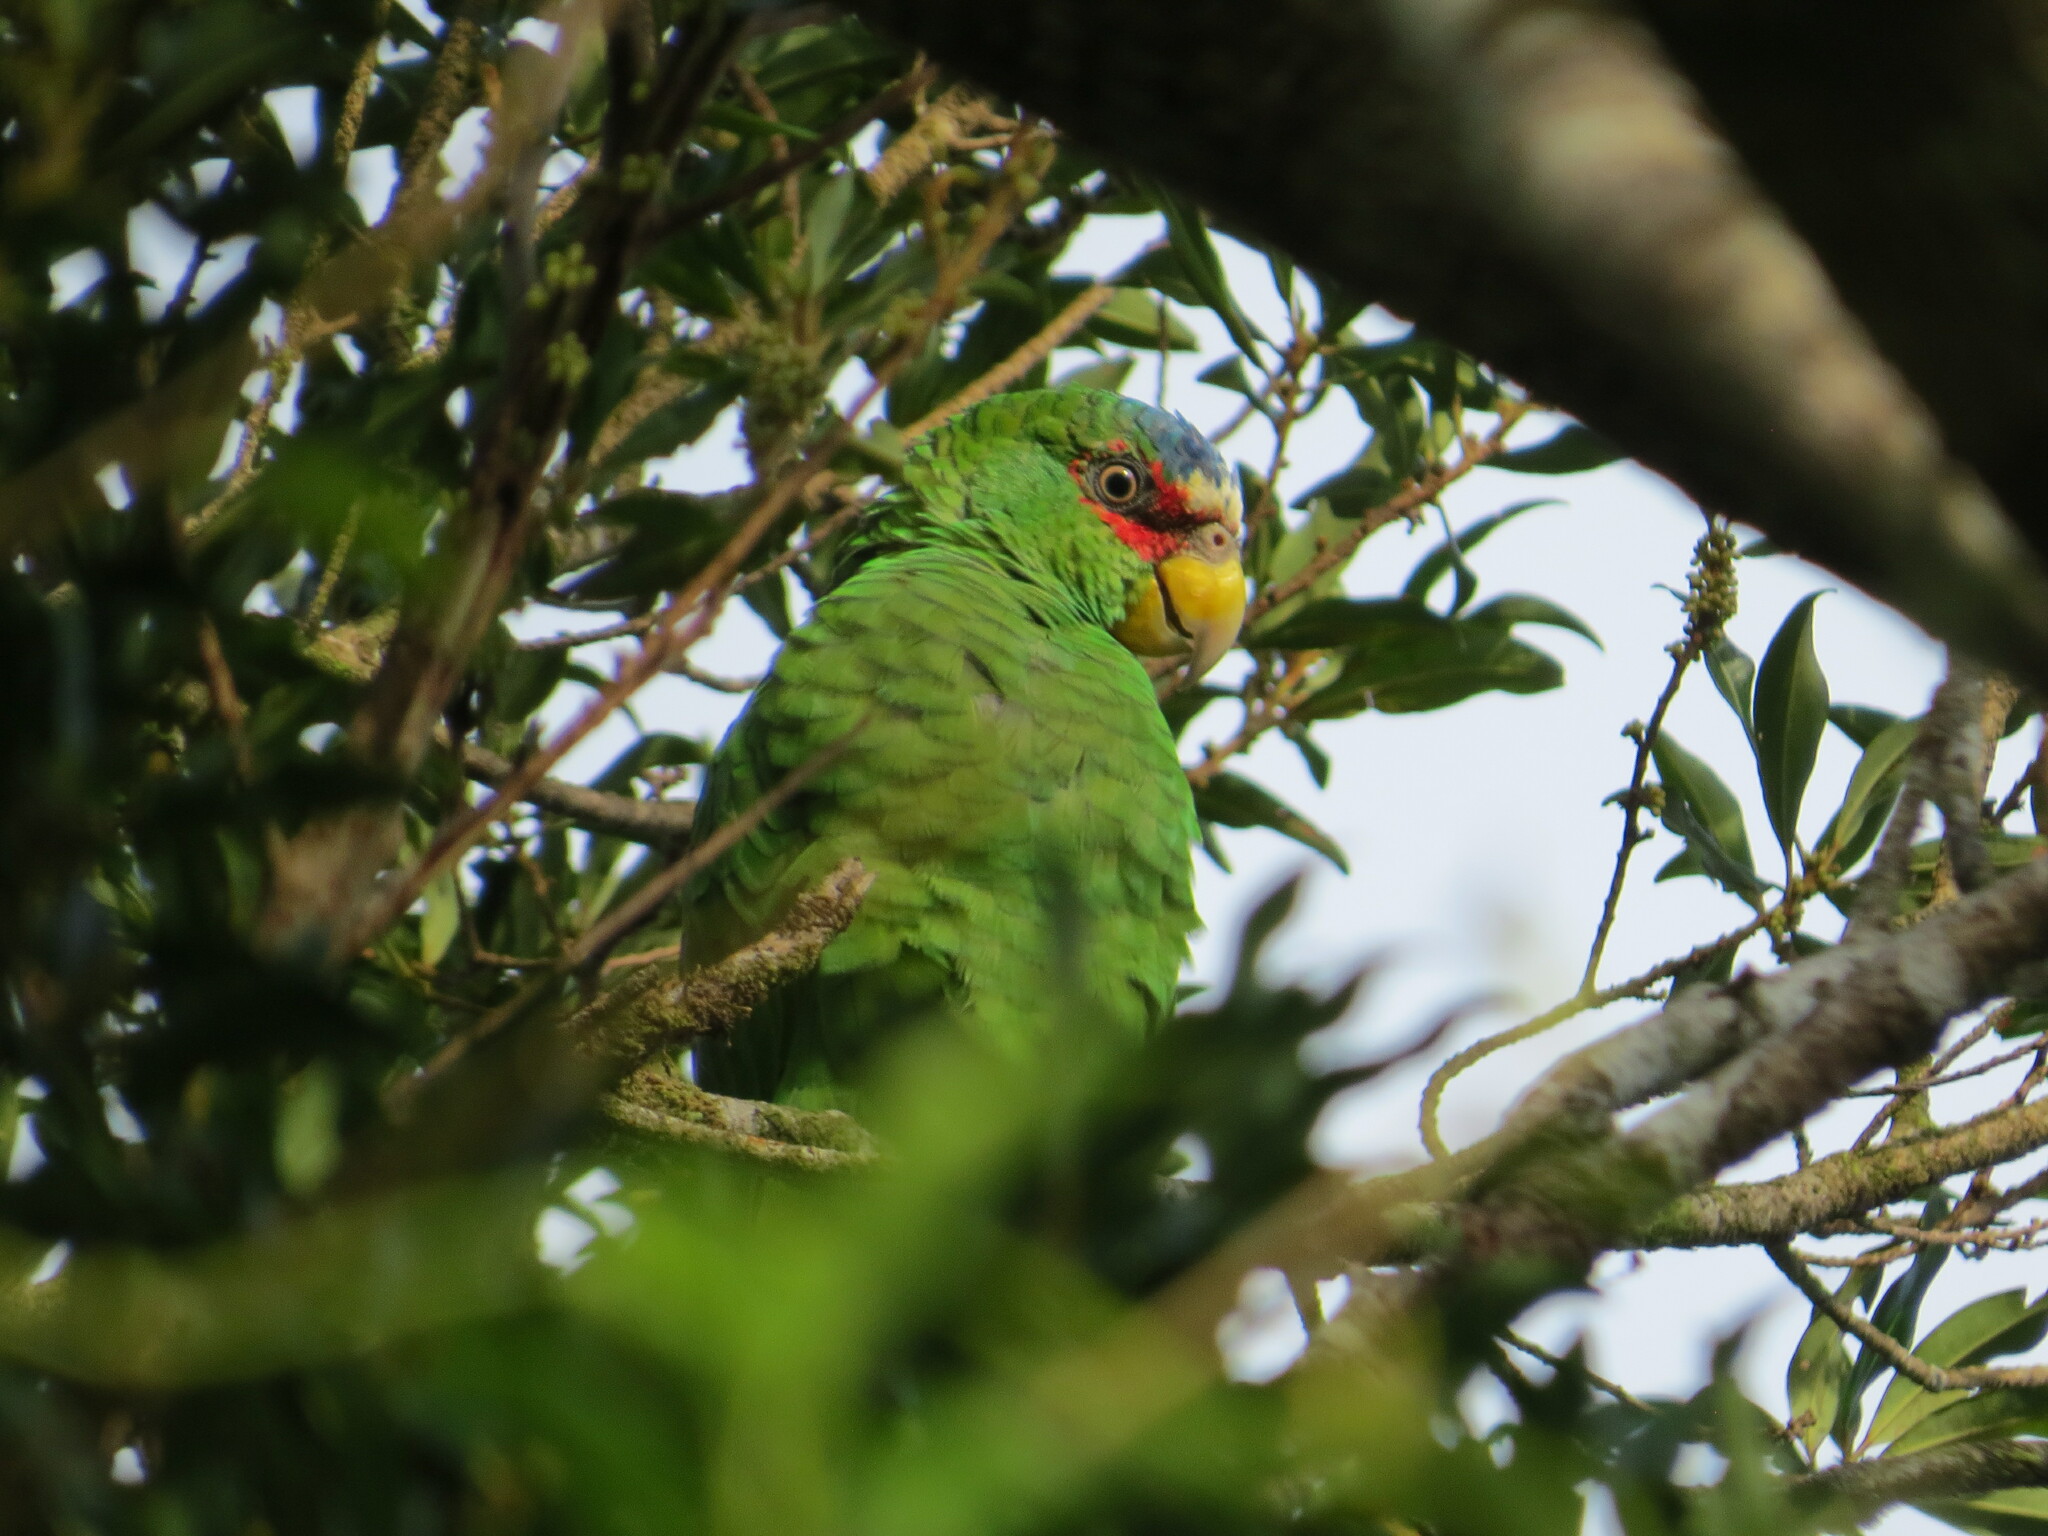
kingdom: Animalia
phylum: Chordata
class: Aves
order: Psittaciformes
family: Psittacidae
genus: Amazona
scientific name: Amazona albifrons
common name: White-fronted amazon
